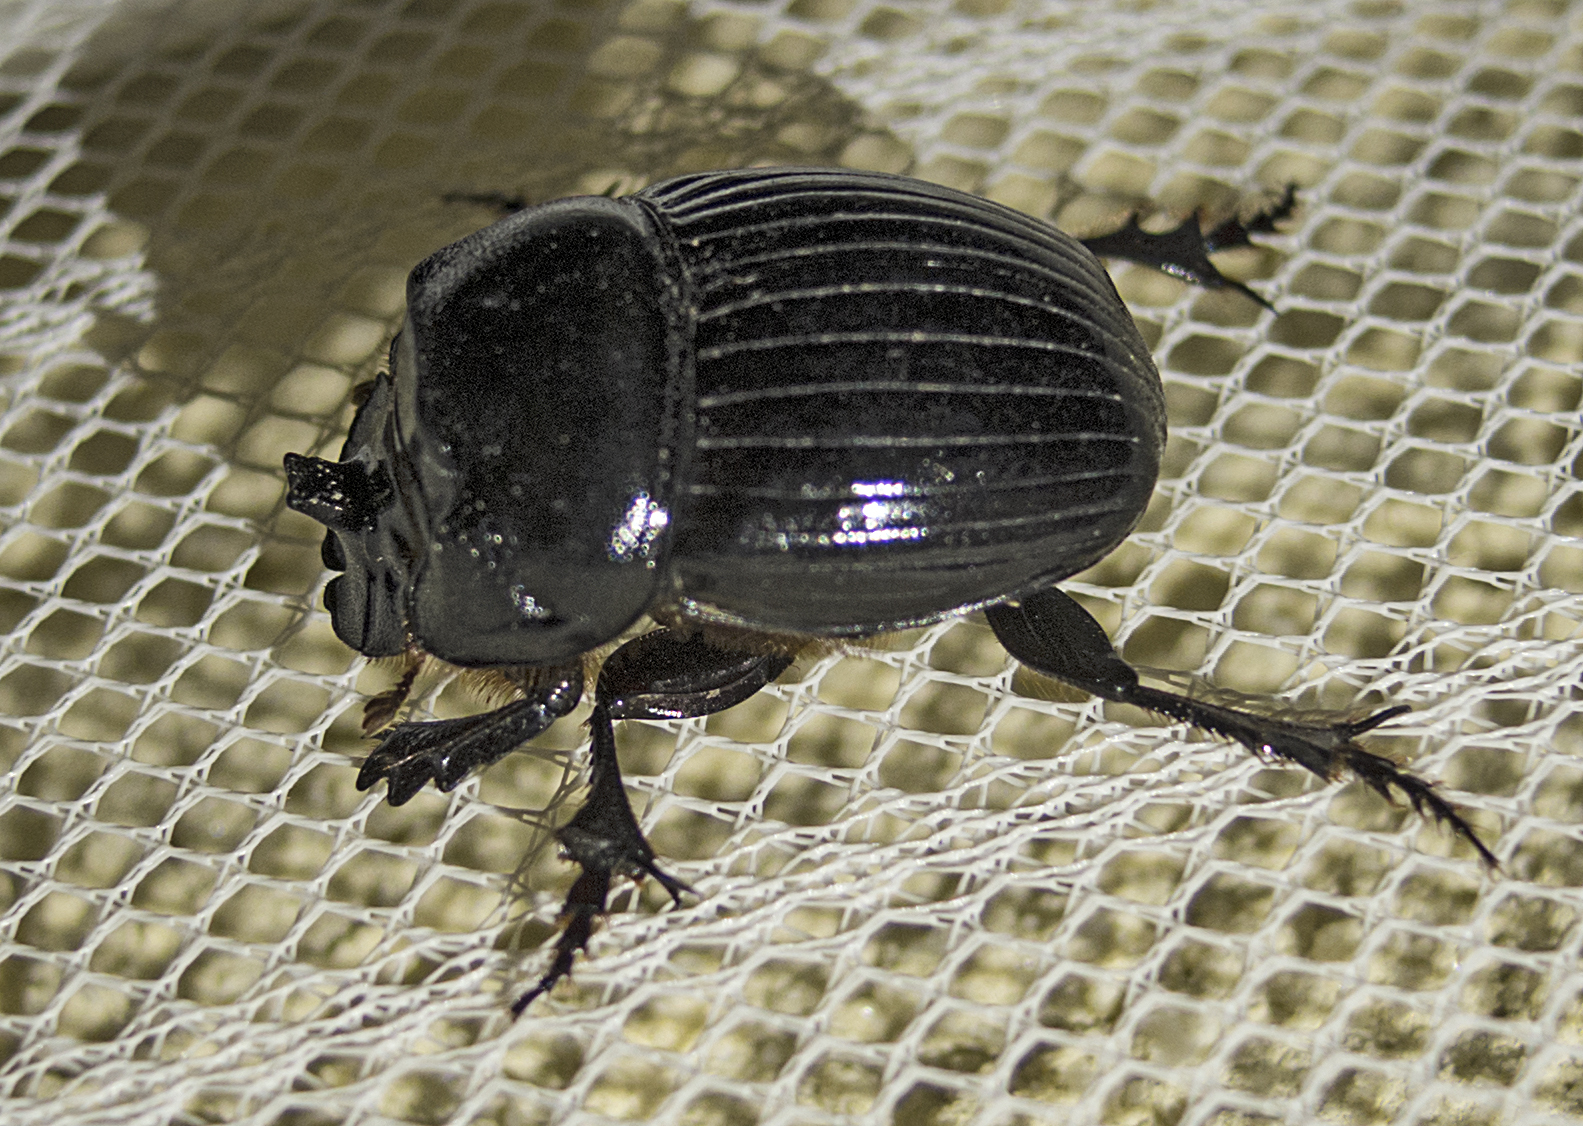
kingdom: Animalia
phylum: Arthropoda
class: Insecta
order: Coleoptera
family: Scarabaeidae
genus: Copris
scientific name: Copris lunaris
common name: Horned dung beetle
